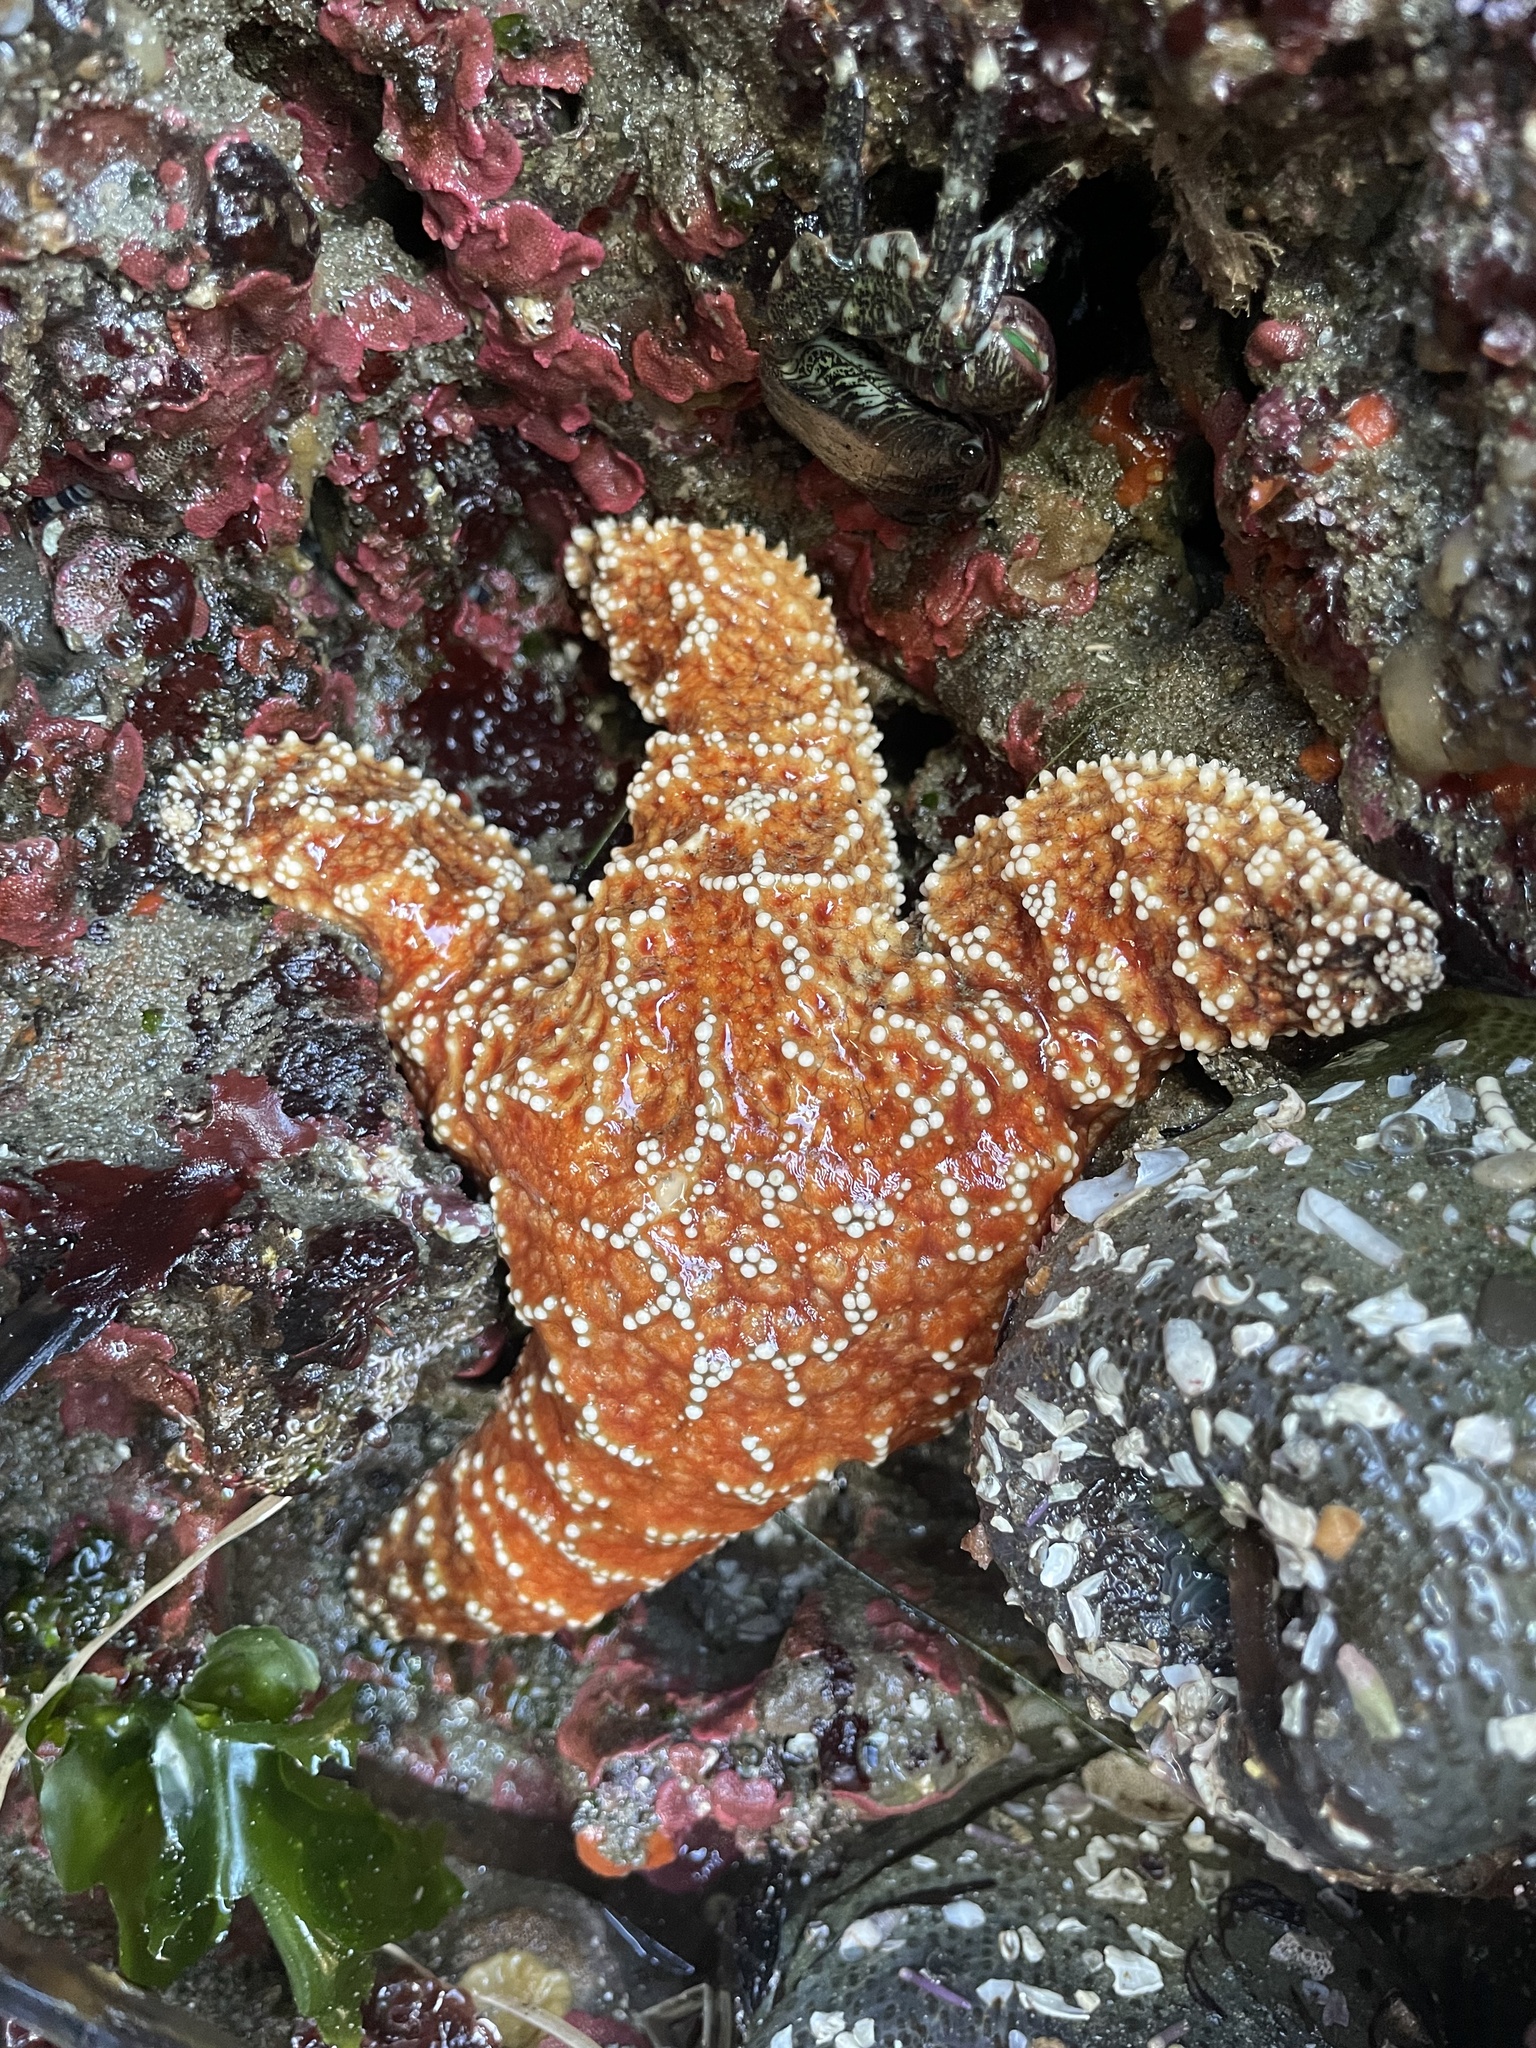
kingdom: Animalia
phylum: Echinodermata
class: Asteroidea
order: Forcipulatida
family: Asteriidae
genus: Pisaster
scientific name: Pisaster ochraceus
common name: Ochre stars
